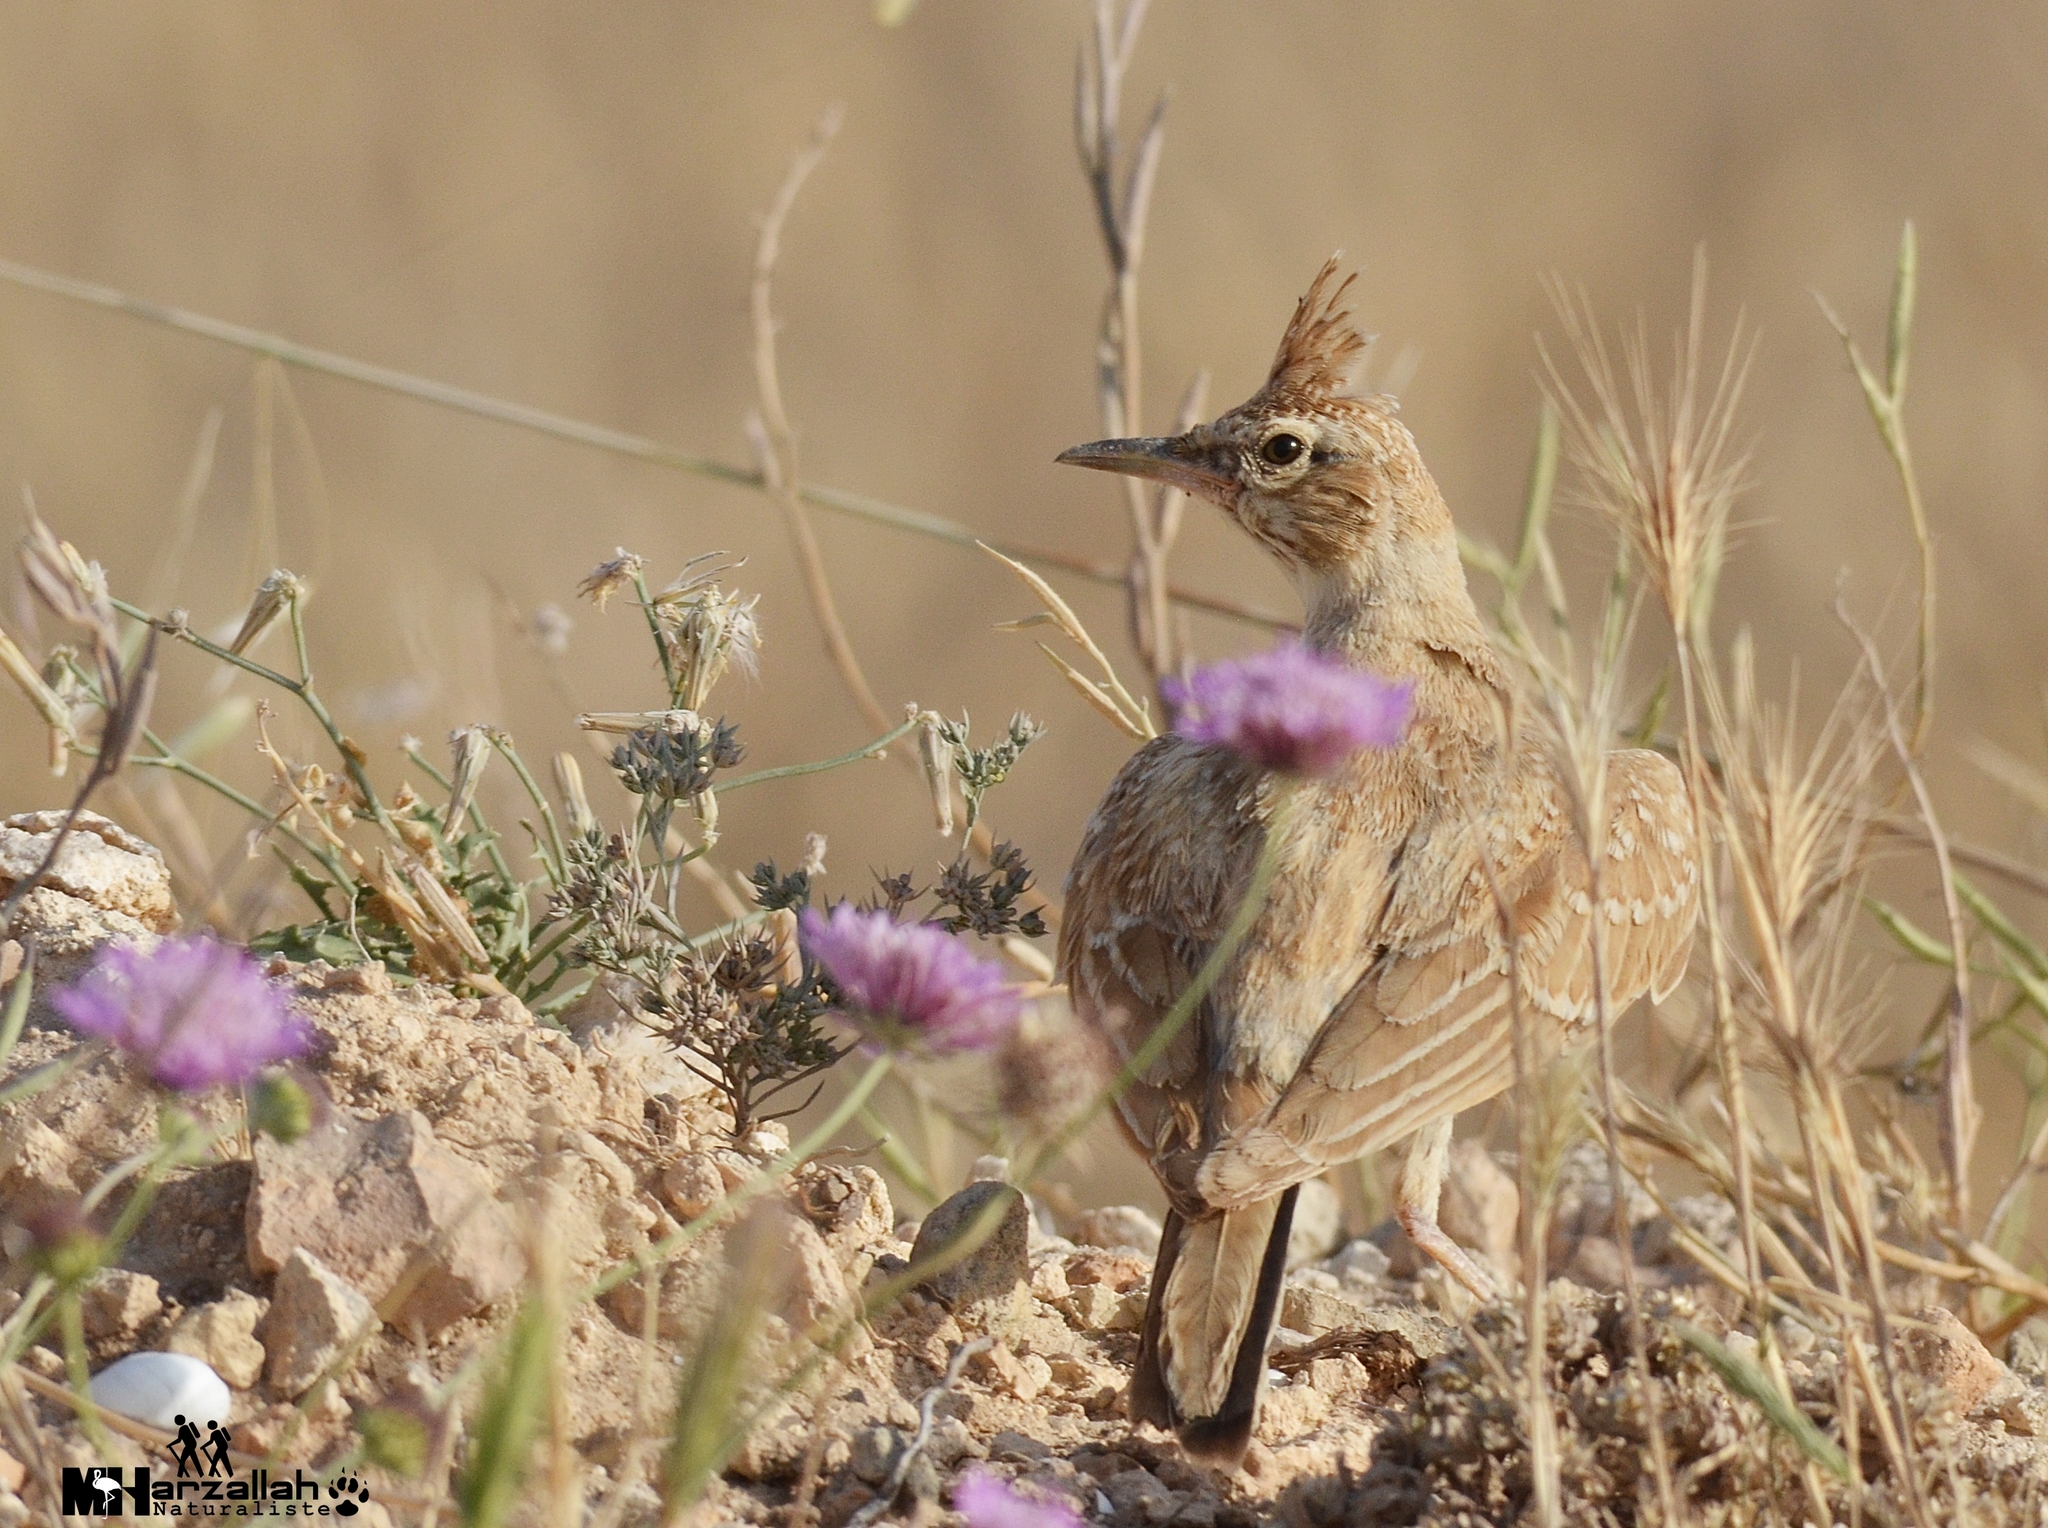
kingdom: Animalia
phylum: Chordata
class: Aves
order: Passeriformes
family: Alaudidae
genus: Galerida
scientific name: Galerida cristata
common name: Crested lark
